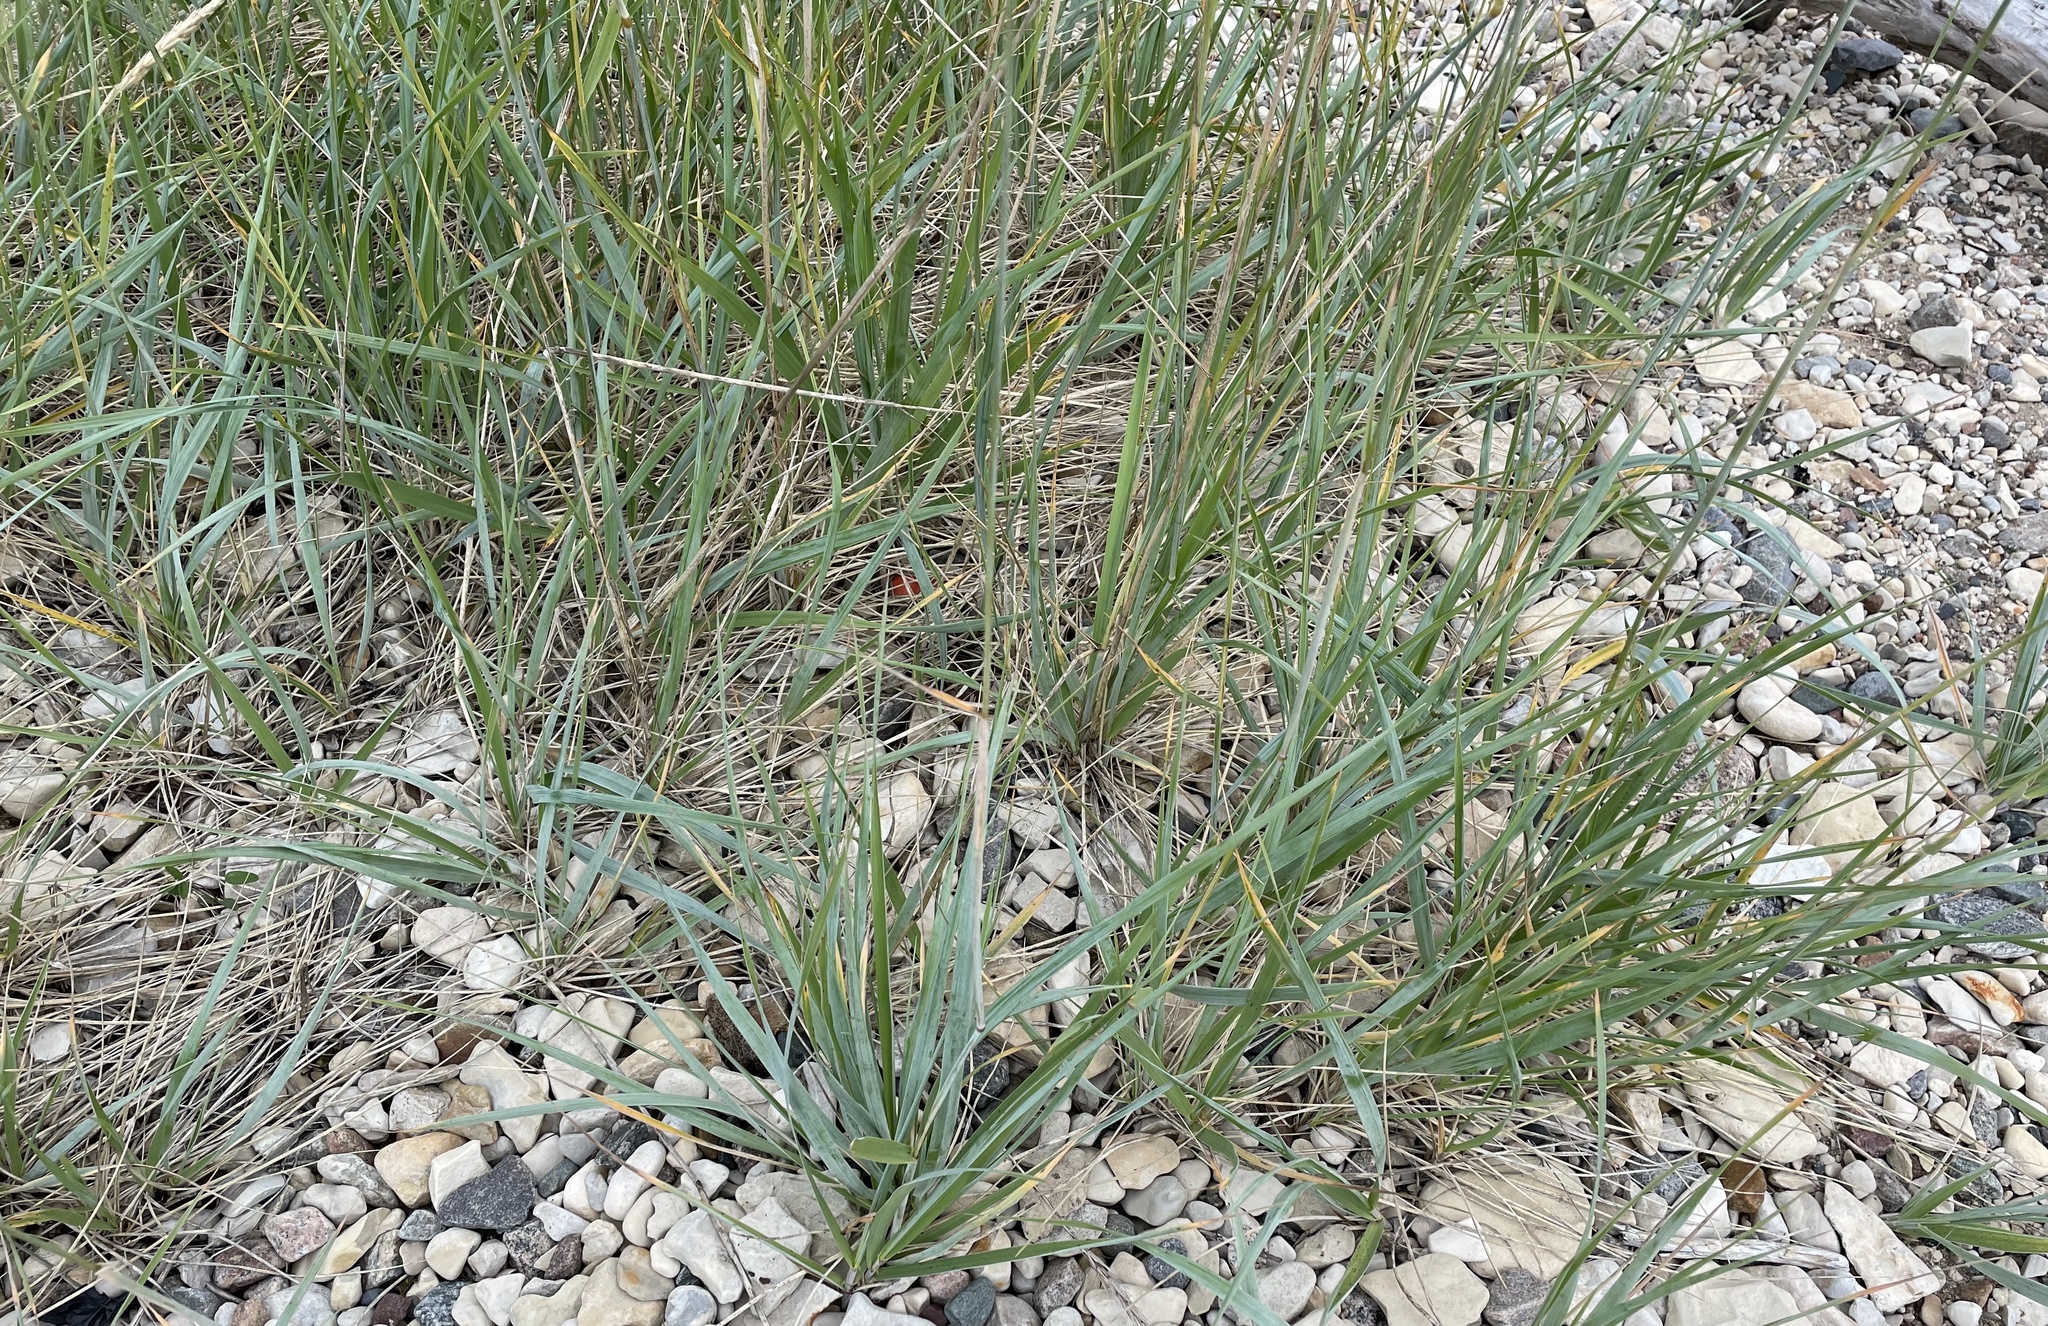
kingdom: Plantae
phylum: Tracheophyta
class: Liliopsida
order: Poales
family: Poaceae
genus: Leymus
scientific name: Leymus mollis
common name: American dune grass
